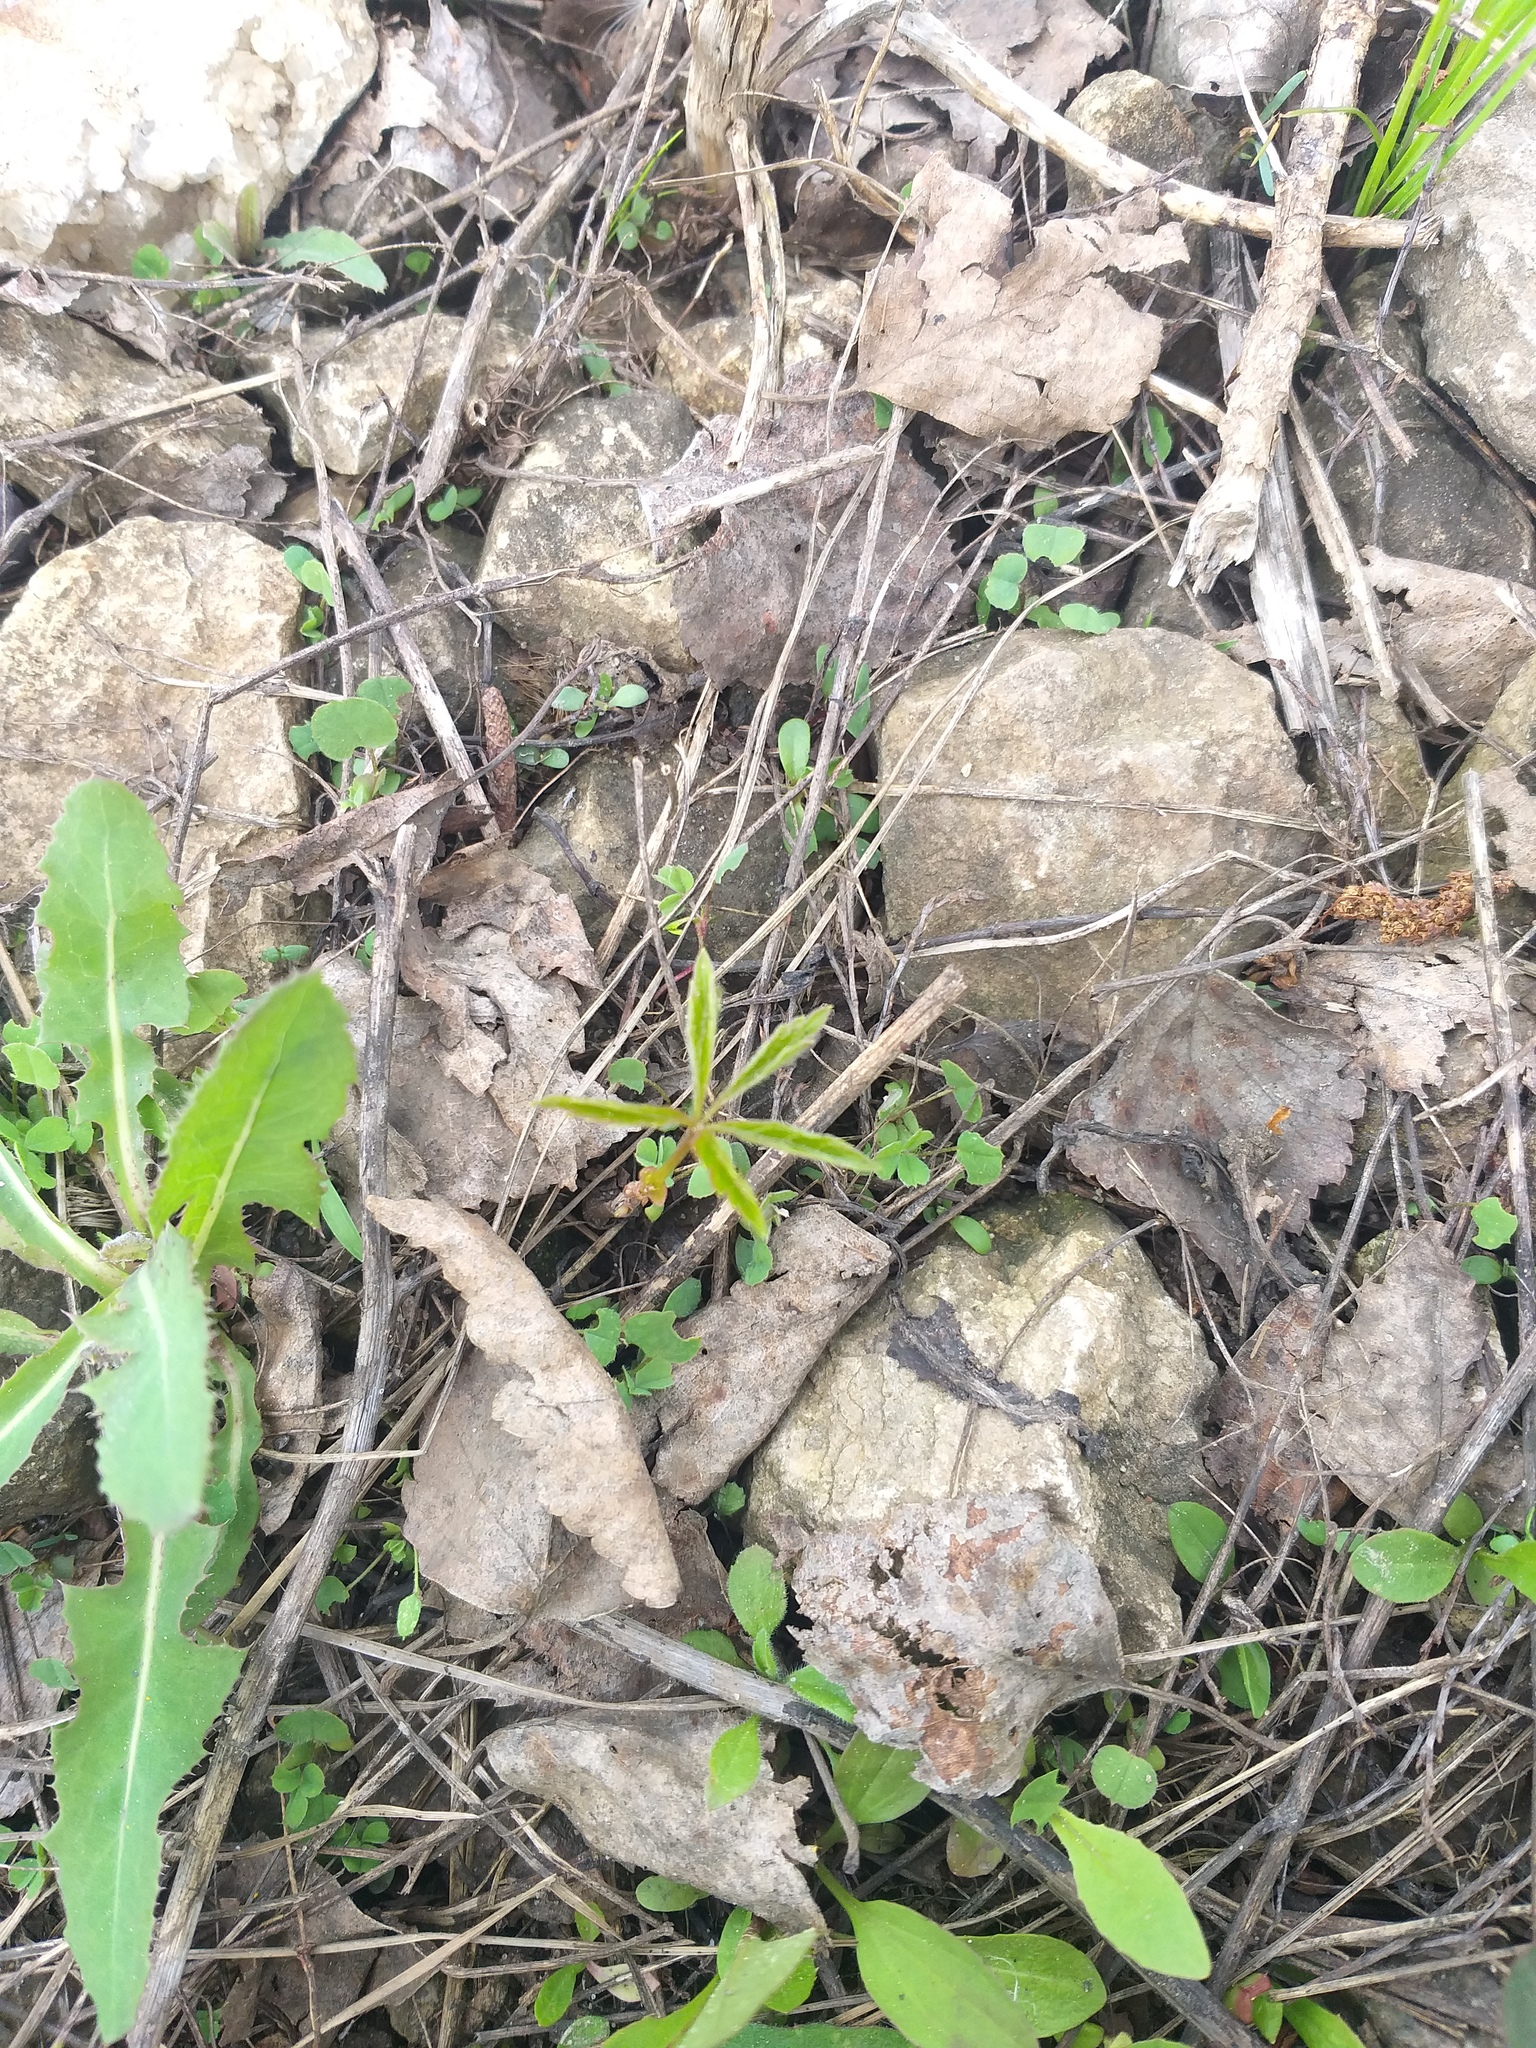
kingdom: Plantae
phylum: Tracheophyta
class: Magnoliopsida
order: Vitales
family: Vitaceae
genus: Parthenocissus
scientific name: Parthenocissus inserta
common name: False virginia-creeper
